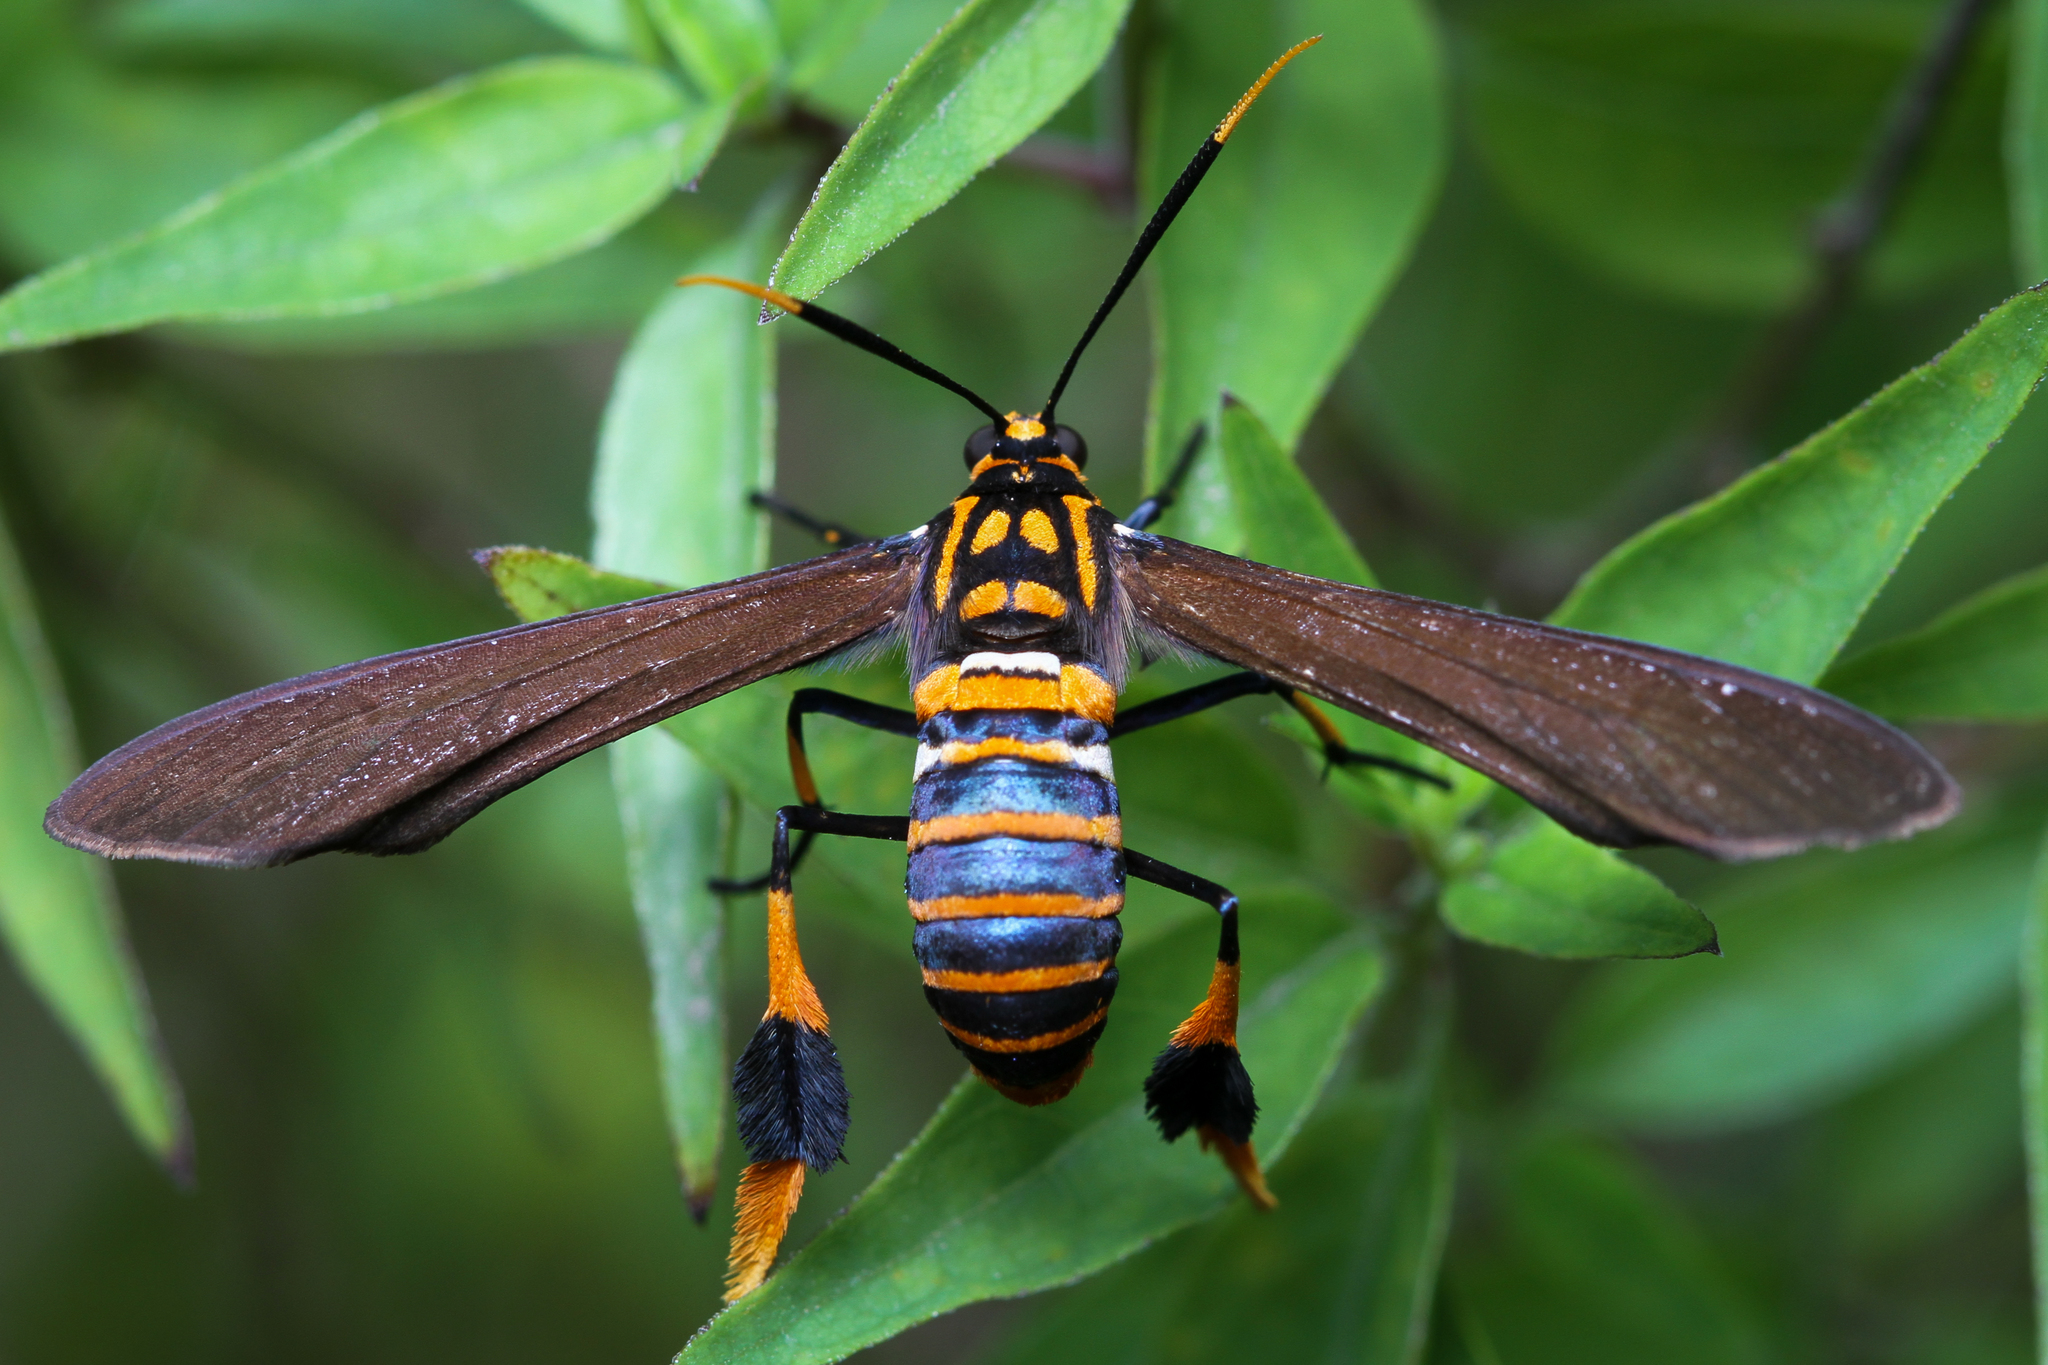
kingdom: Animalia
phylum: Arthropoda
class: Insecta
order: Lepidoptera
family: Erebidae
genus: Horama
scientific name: Horama panthalon
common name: Texas wasp moth
